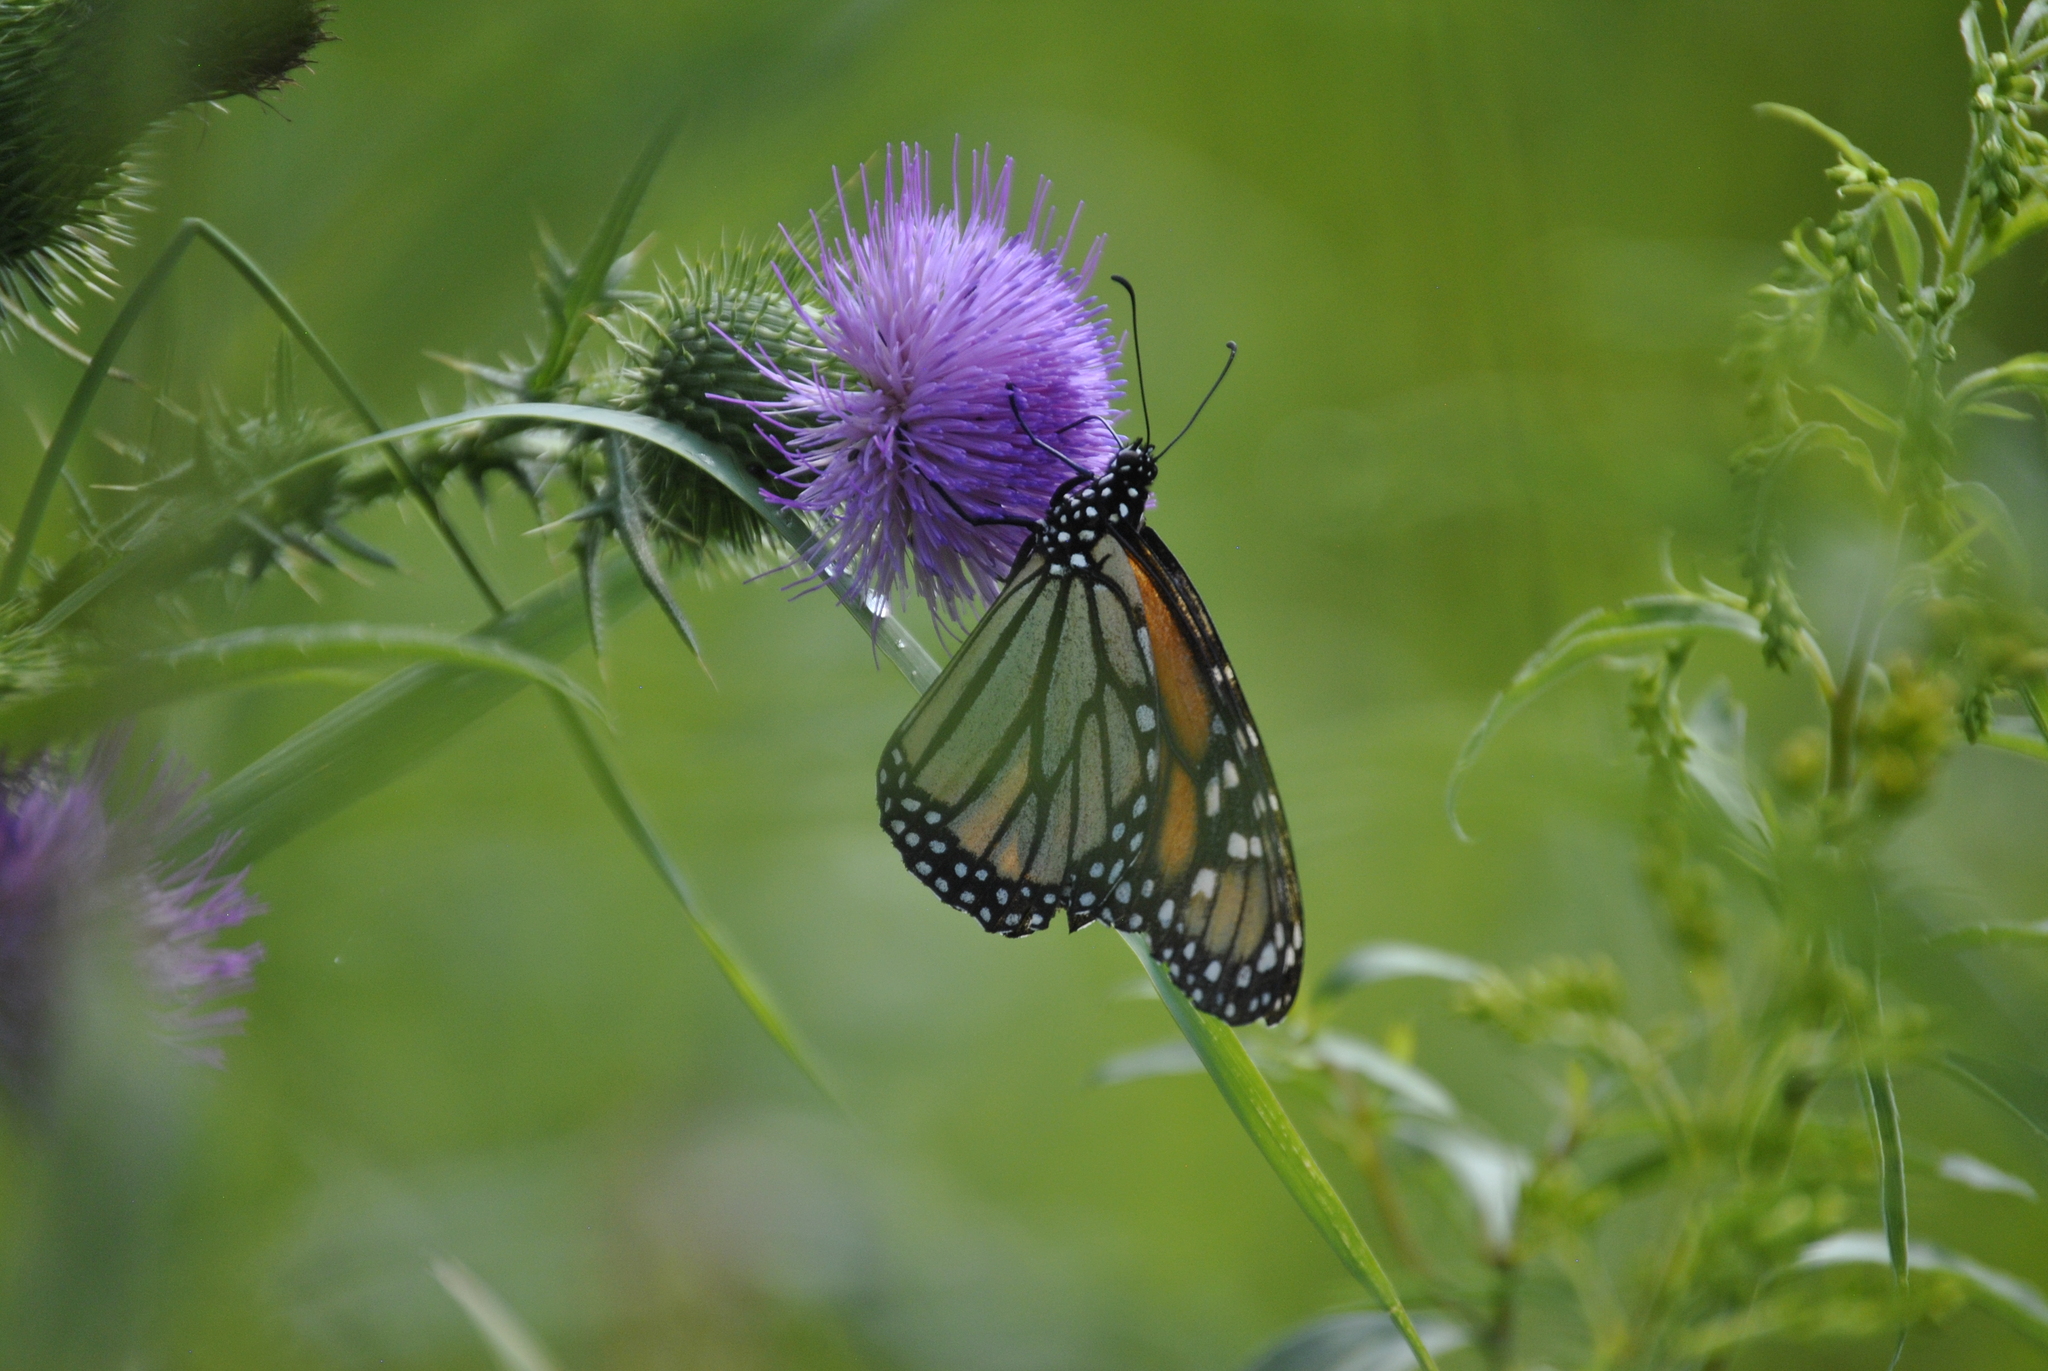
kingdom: Animalia
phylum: Arthropoda
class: Insecta
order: Lepidoptera
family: Nymphalidae
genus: Danaus
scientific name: Danaus plexippus
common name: Monarch
